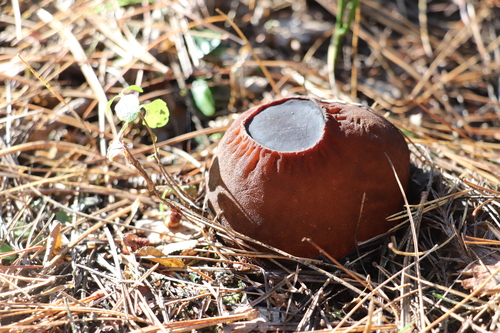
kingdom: Fungi
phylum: Ascomycota
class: Pezizomycetes
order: Pezizales
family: Sarcosomataceae
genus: Sarcosoma
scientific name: Sarcosoma globosum
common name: Charred-pancake cup
